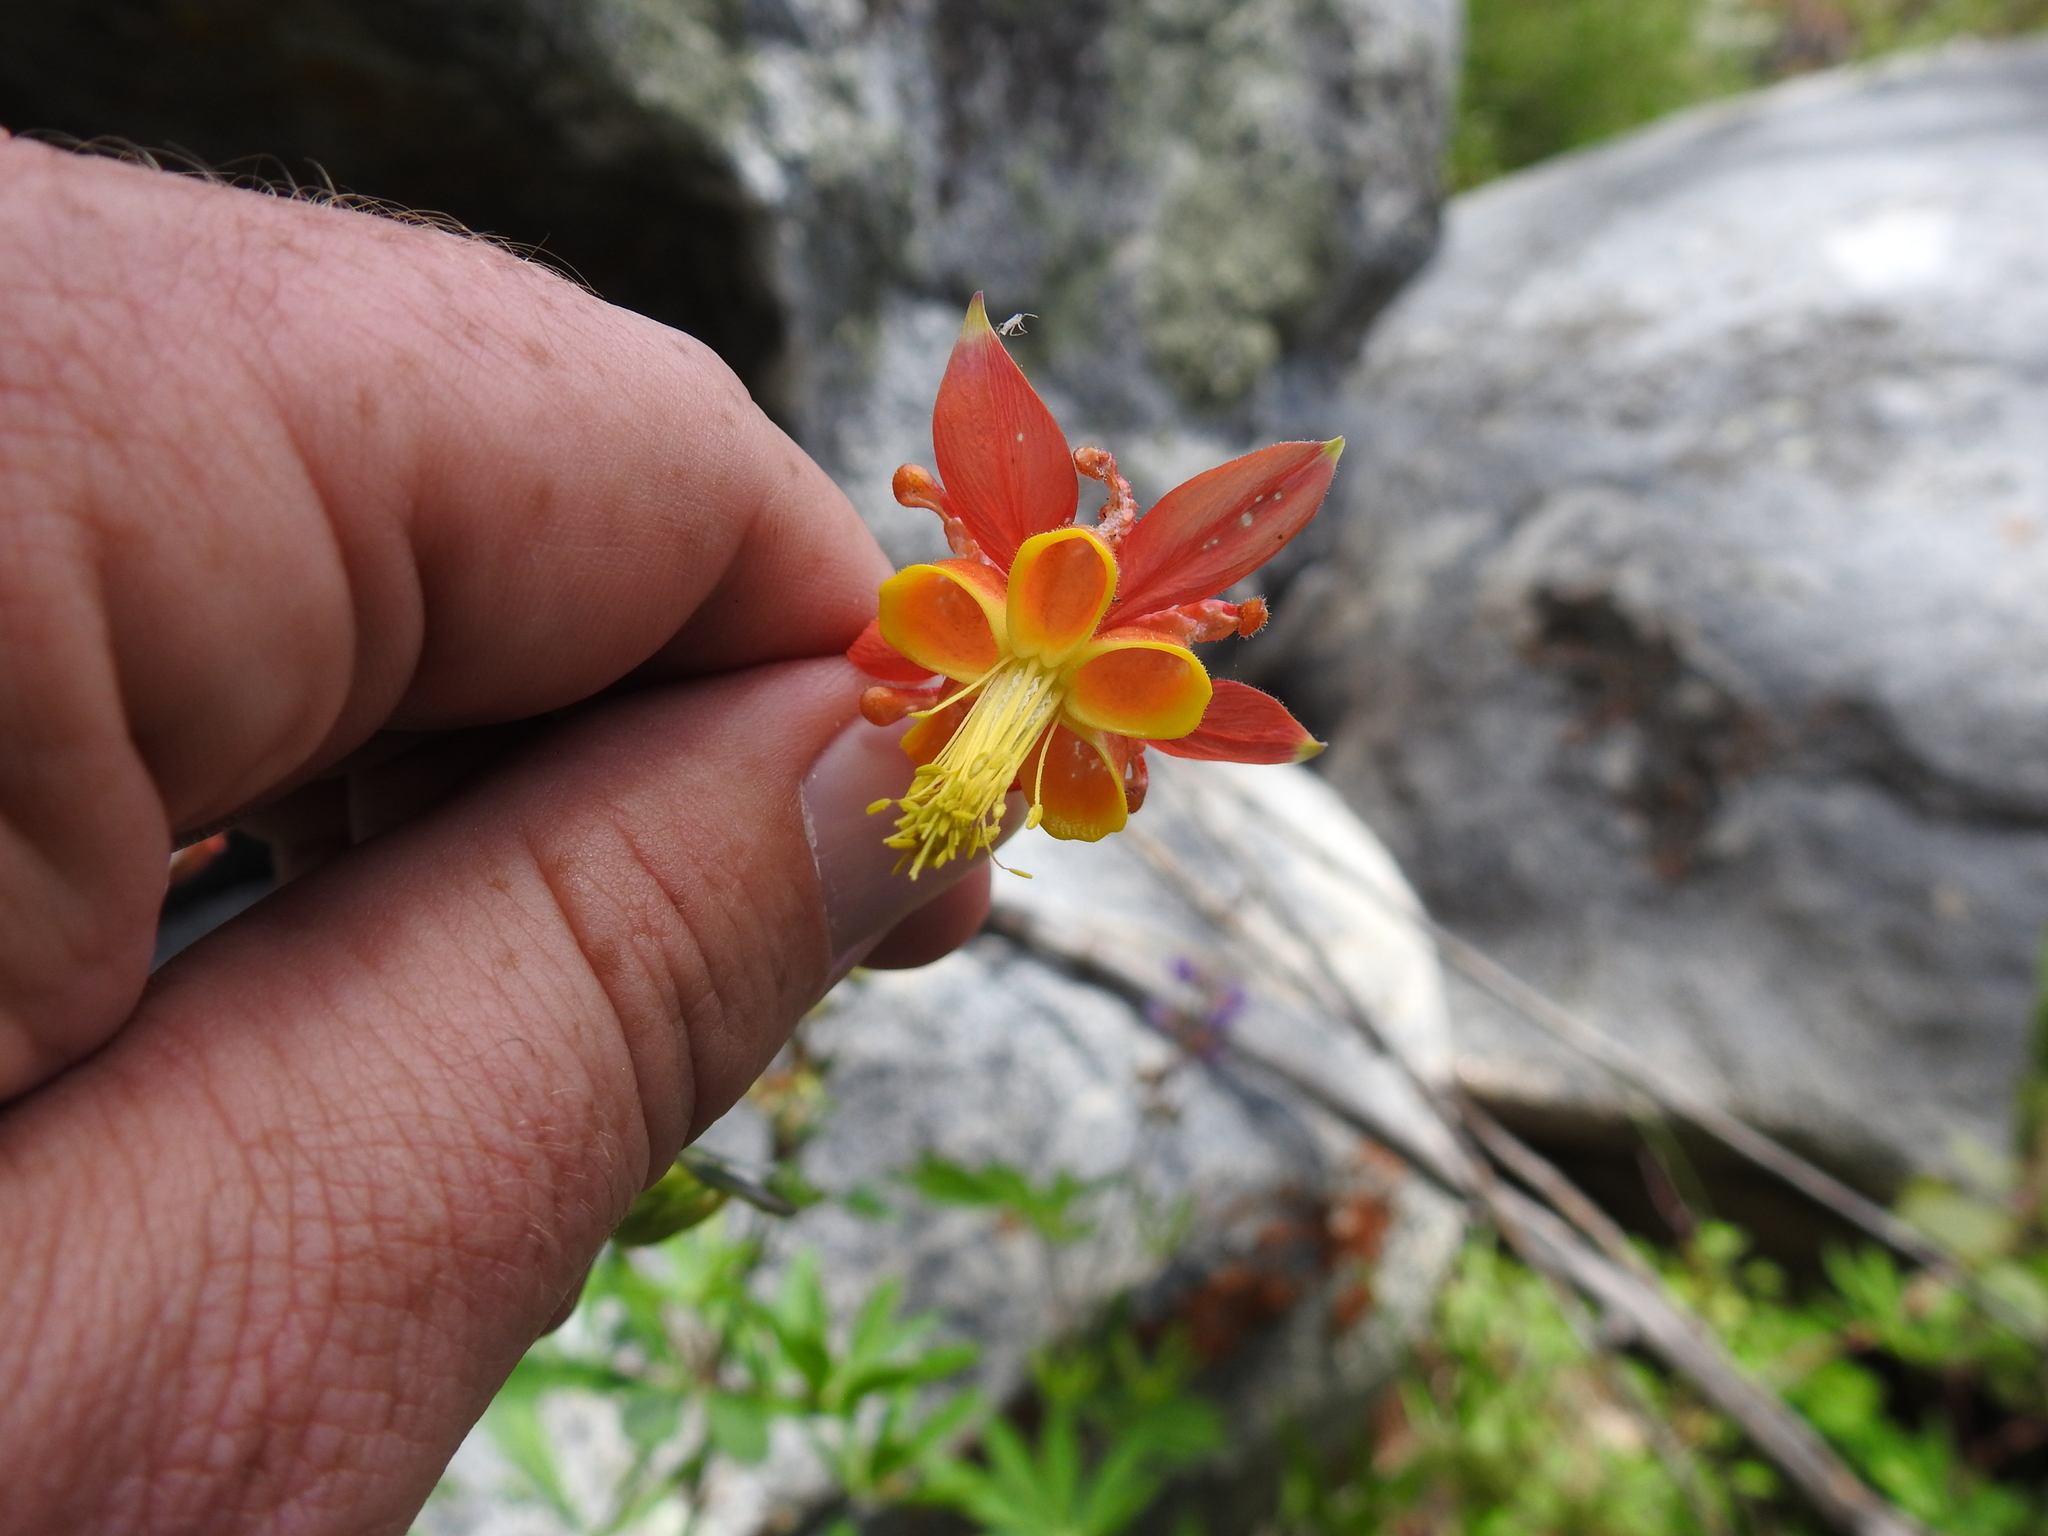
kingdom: Plantae
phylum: Tracheophyta
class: Magnoliopsida
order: Ranunculales
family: Ranunculaceae
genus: Aquilegia
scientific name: Aquilegia formosa
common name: Sitka columbine
